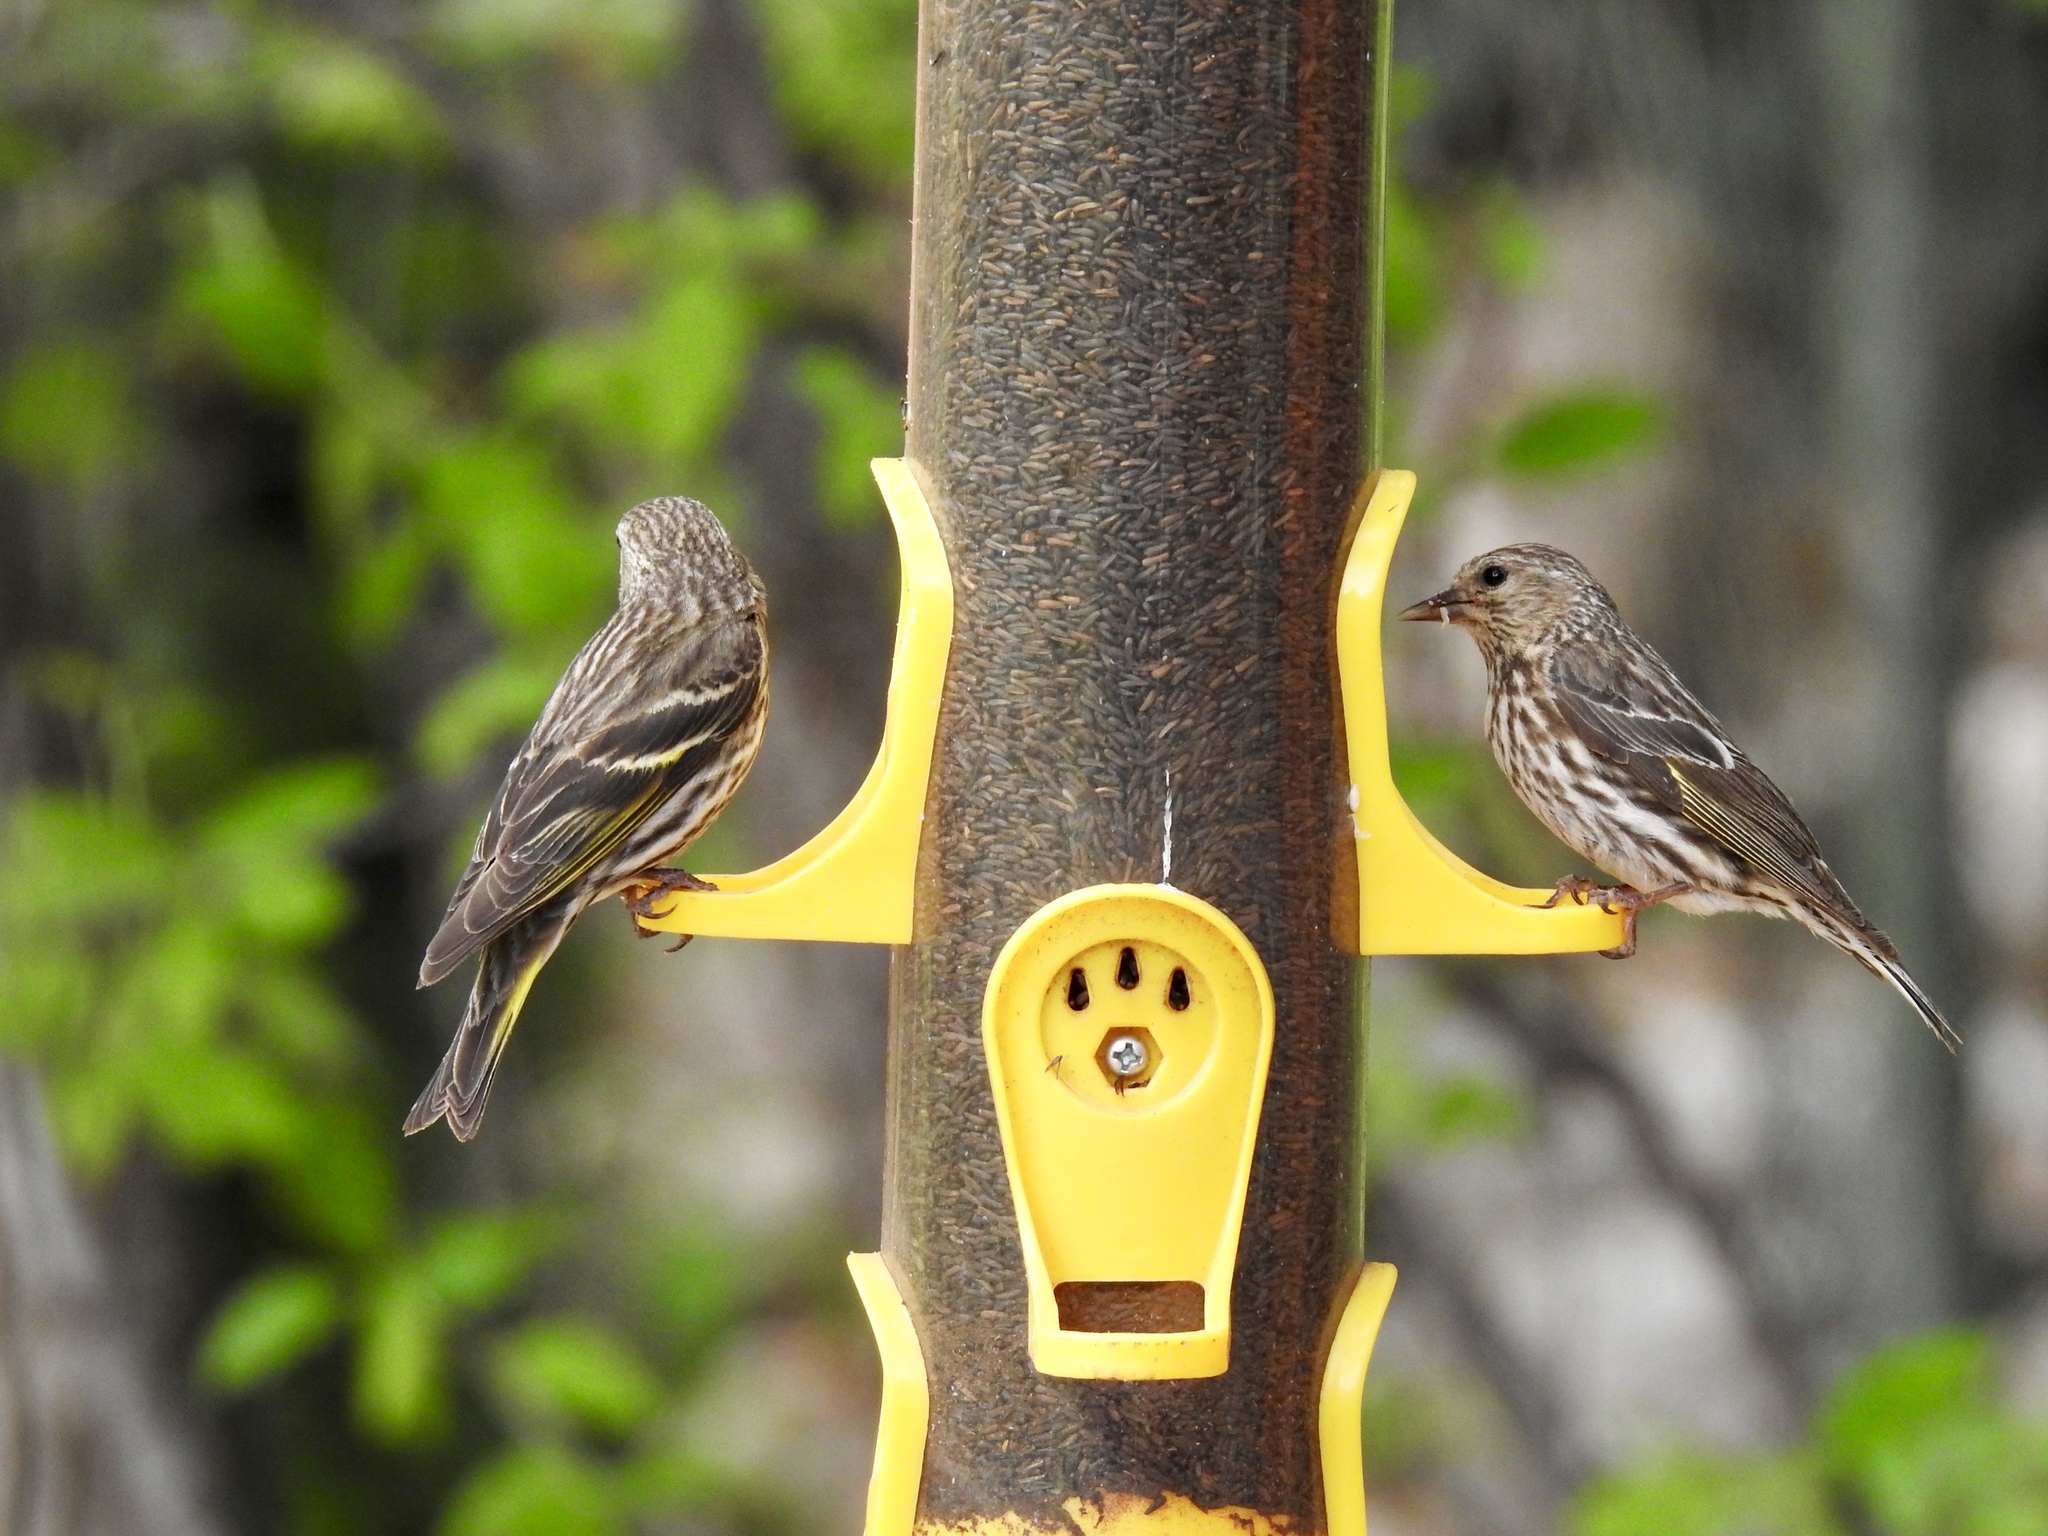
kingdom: Animalia
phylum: Chordata
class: Aves
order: Passeriformes
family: Fringillidae
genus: Spinus
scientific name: Spinus pinus
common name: Pine siskin
